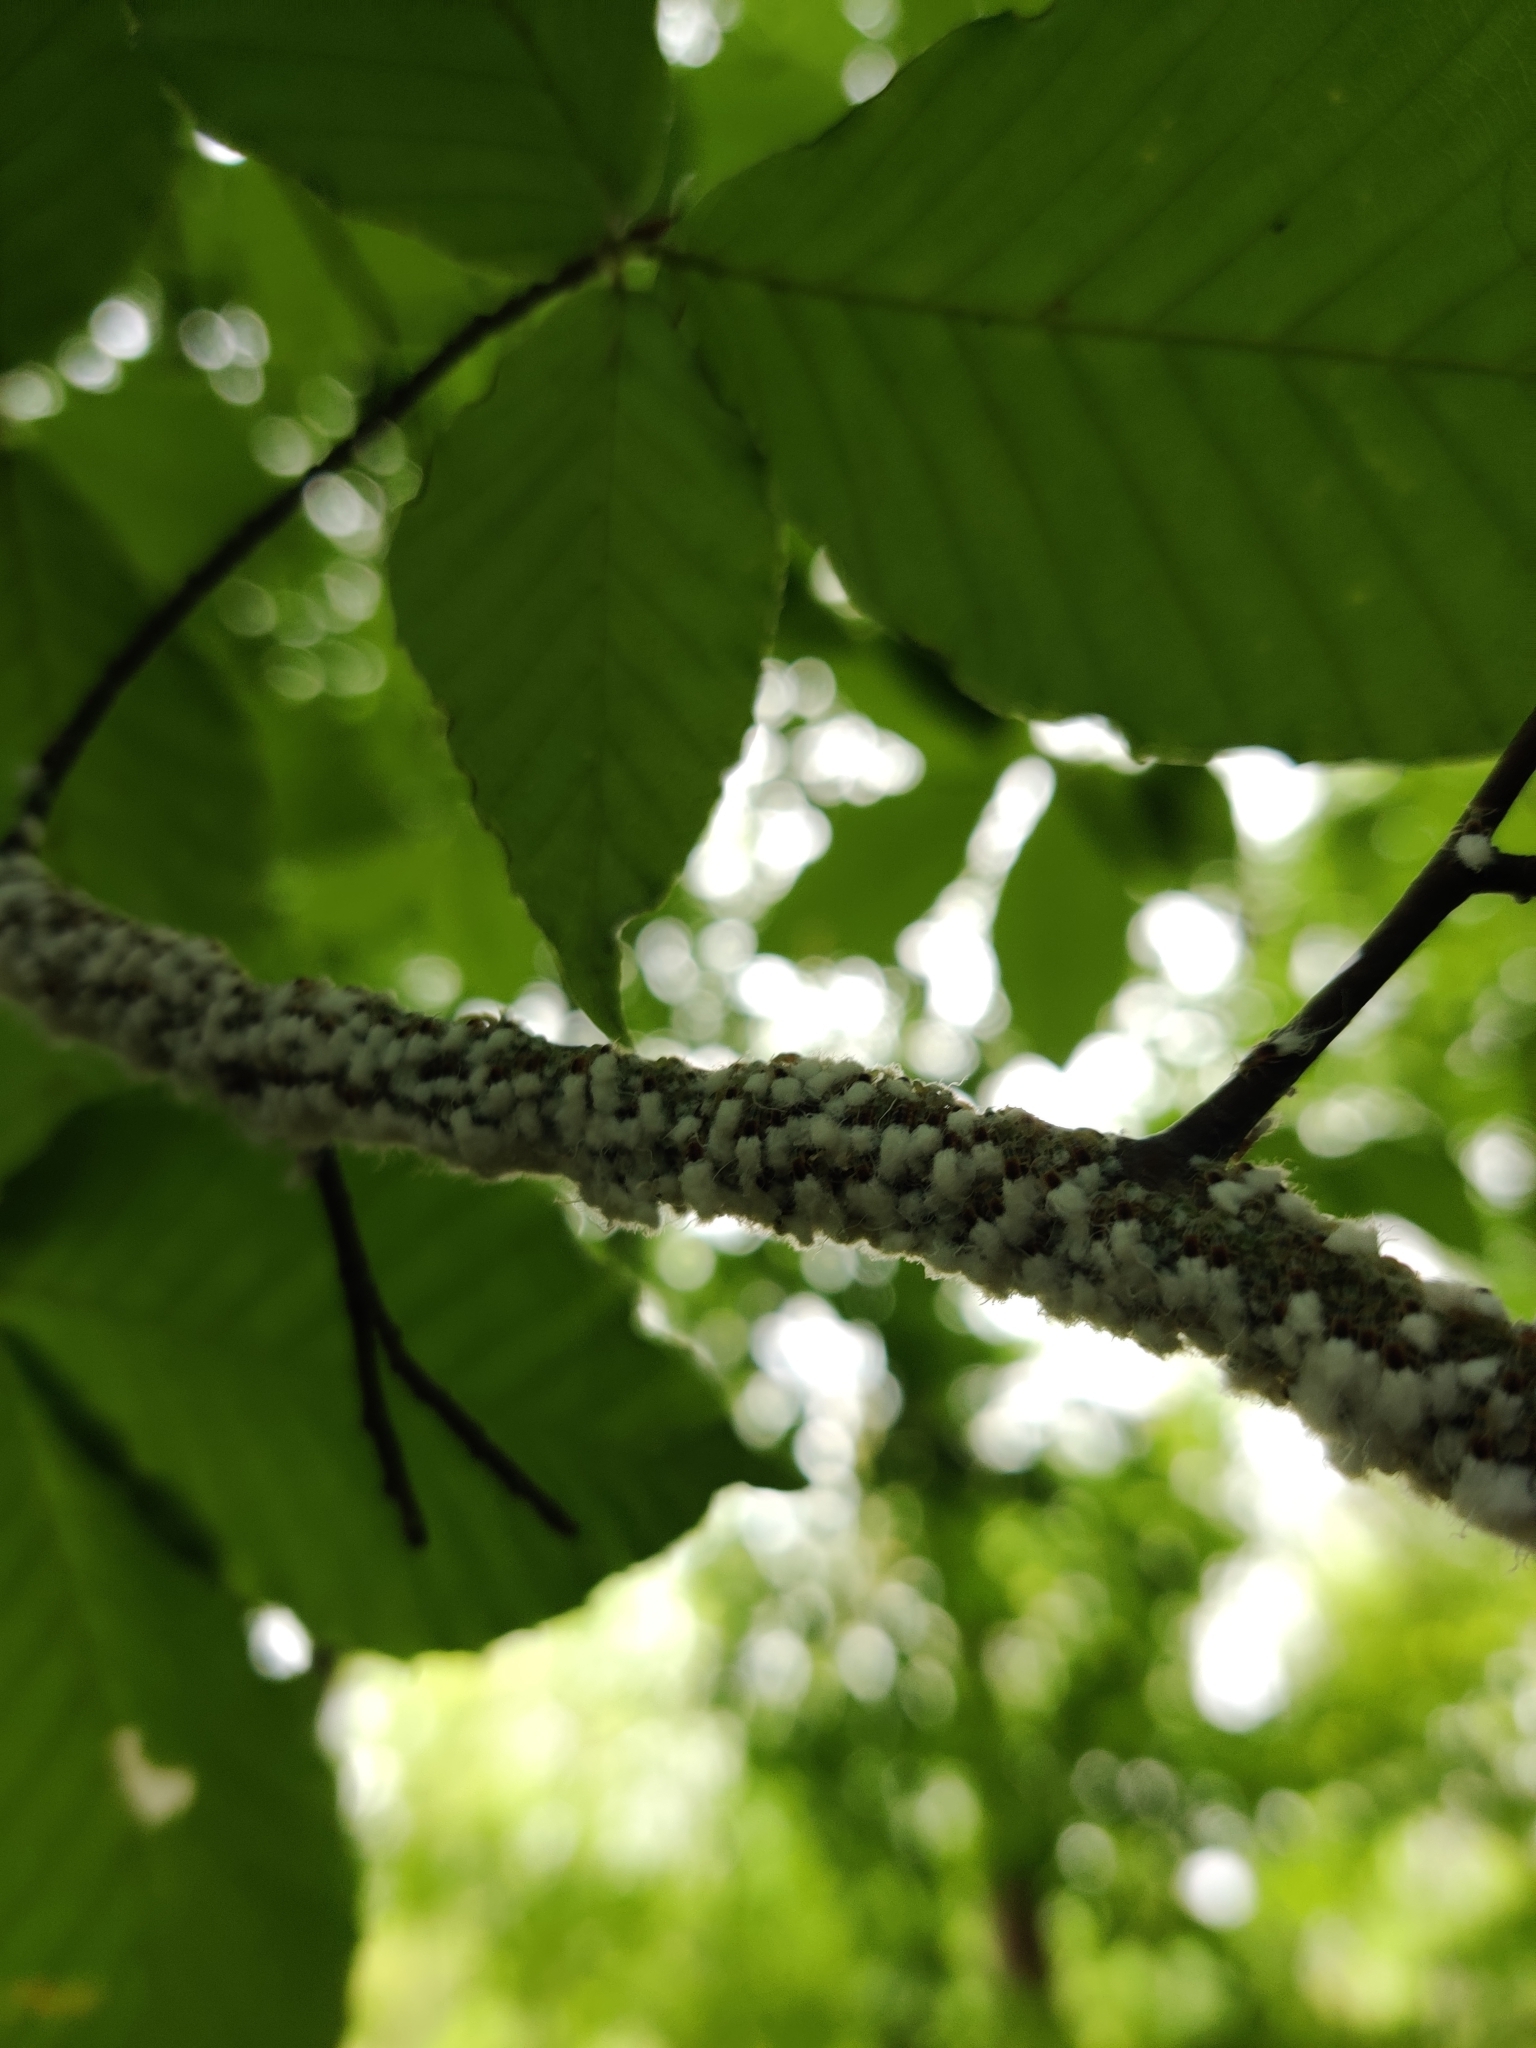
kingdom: Animalia
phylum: Arthropoda
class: Insecta
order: Hemiptera
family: Aphididae
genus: Grylloprociphilus
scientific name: Grylloprociphilus imbricator
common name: Beech blight aphid
